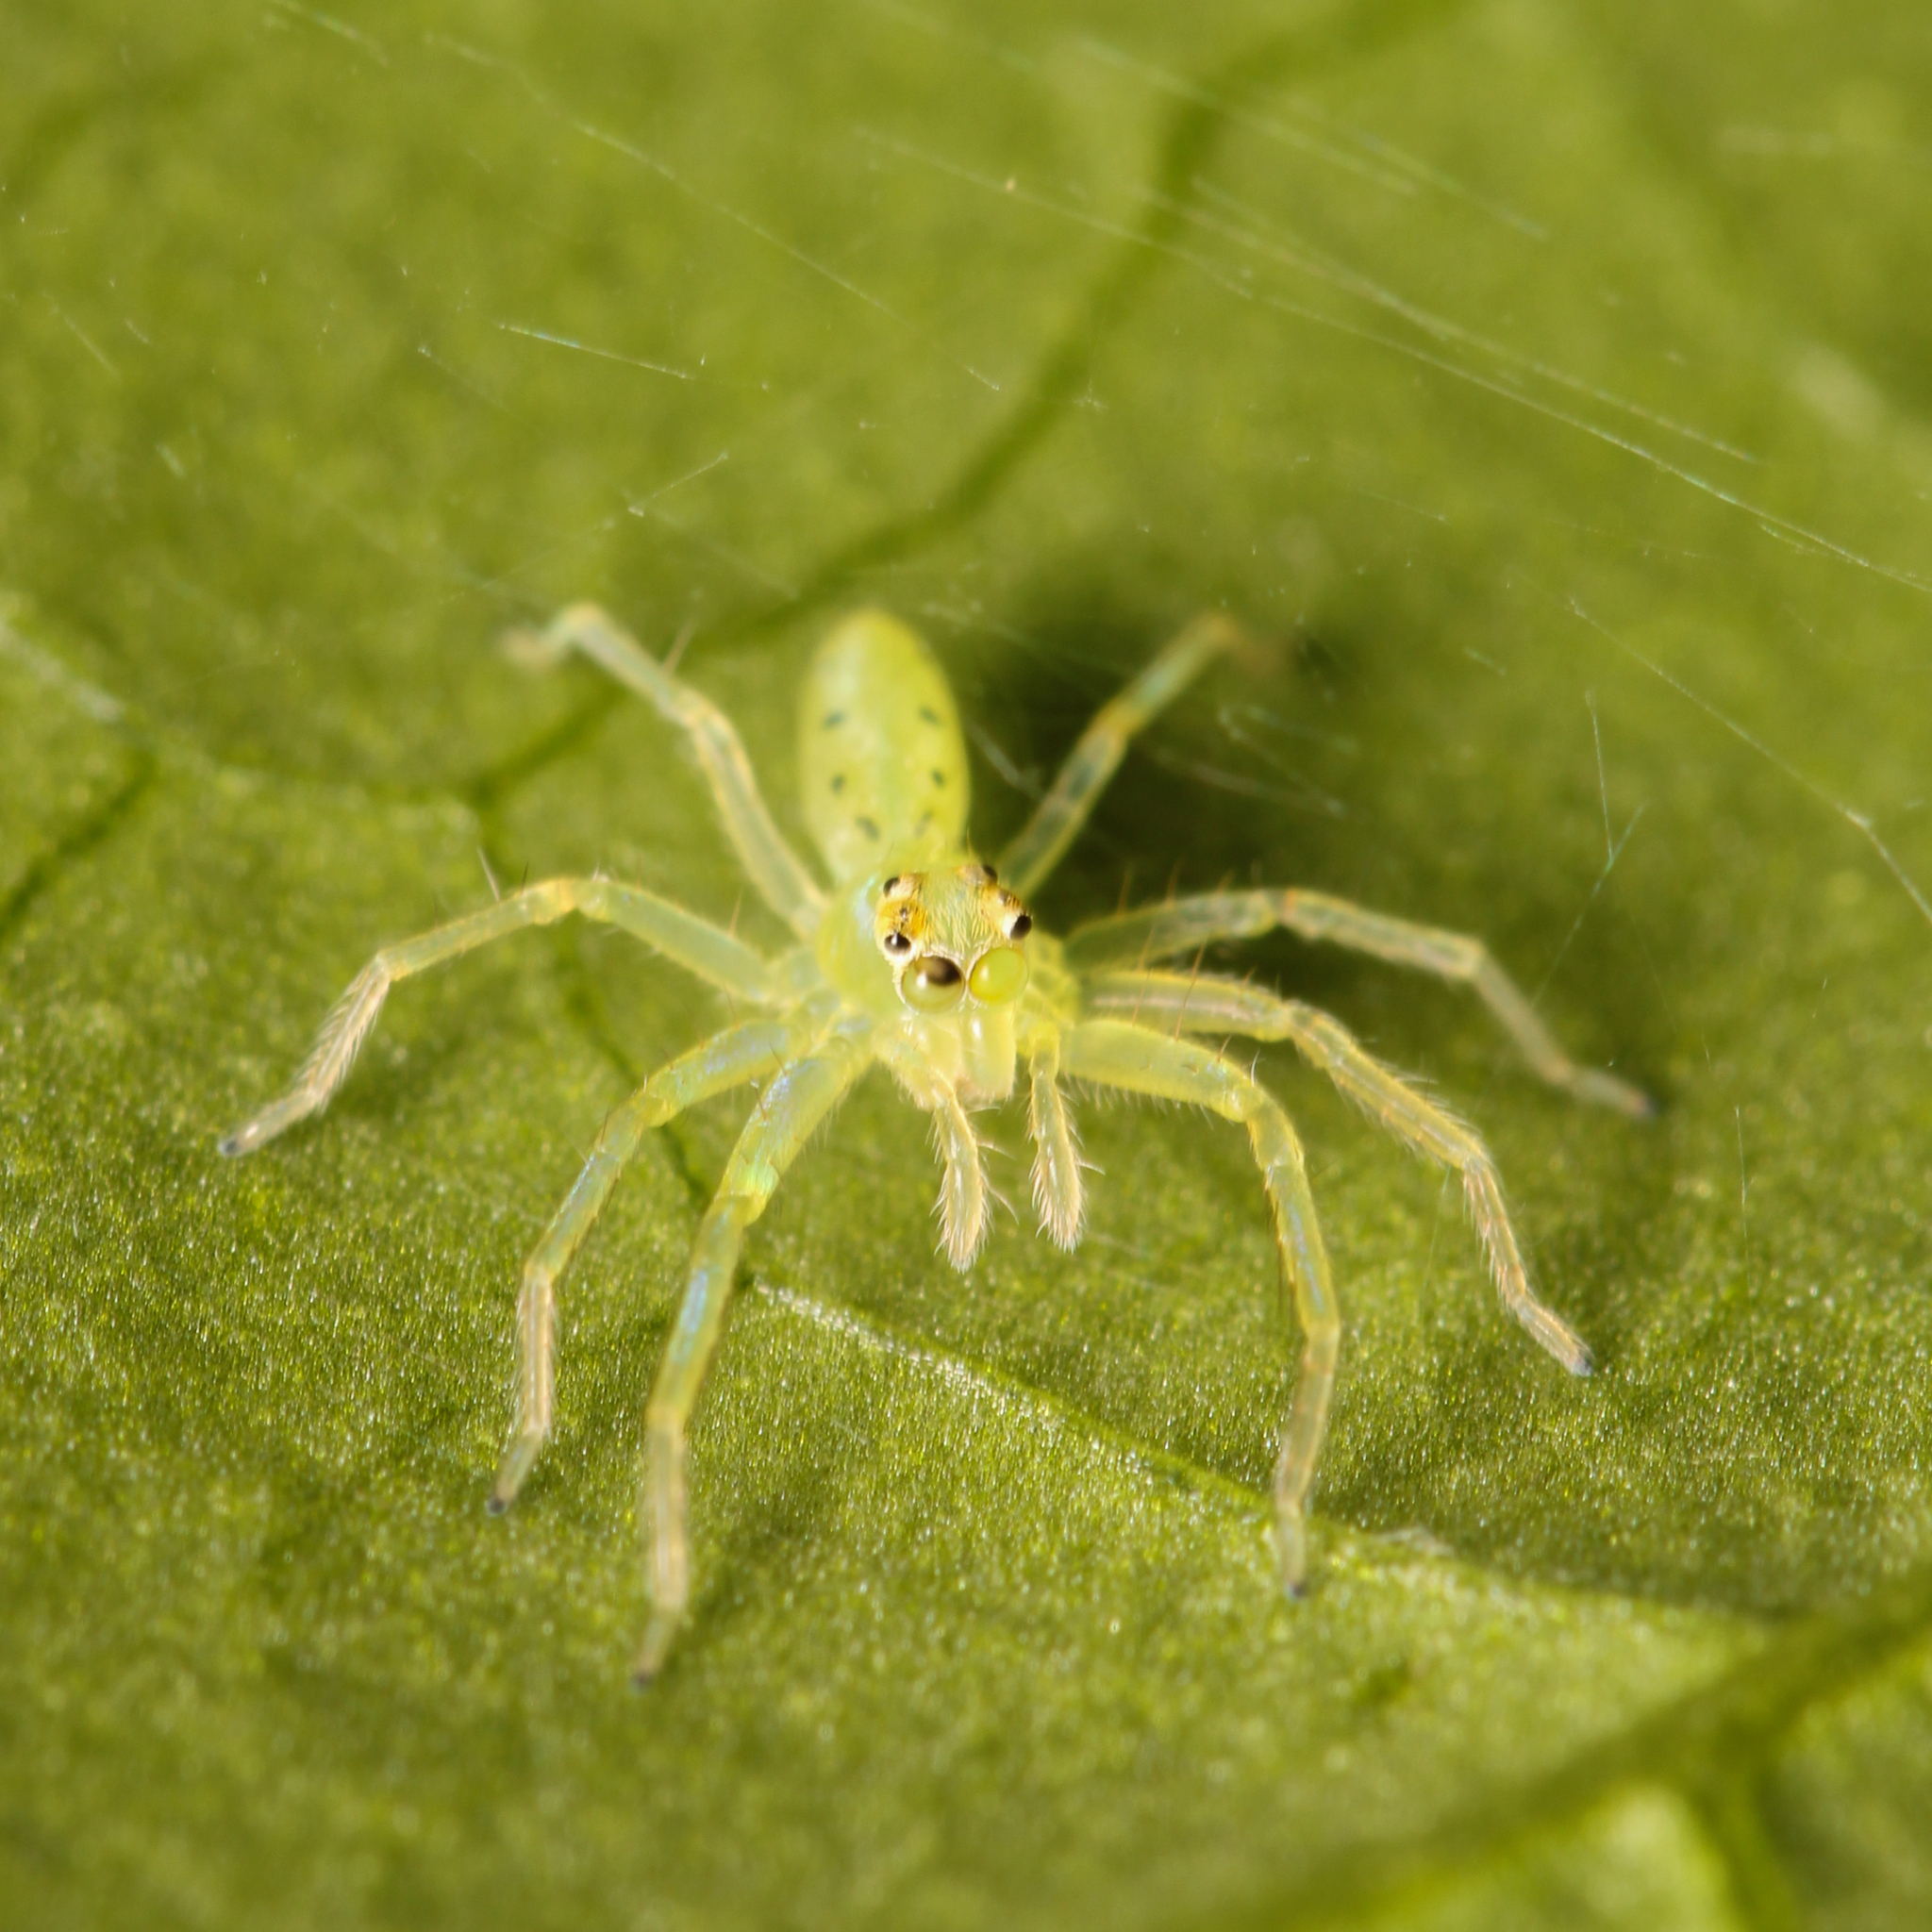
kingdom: Animalia
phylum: Arthropoda
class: Arachnida
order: Araneae
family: Salticidae
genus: Lyssomanes
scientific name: Lyssomanes viridis
